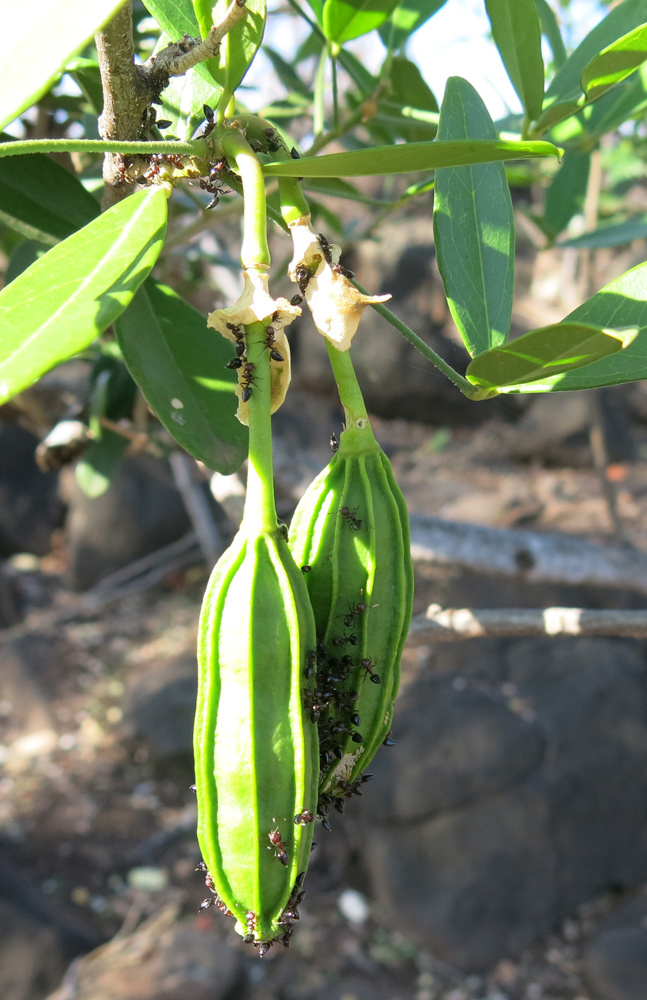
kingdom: Plantae
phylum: Tracheophyta
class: Magnoliopsida
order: Brassicales
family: Capparaceae
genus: Thilachium
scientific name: Thilachium africanum
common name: Cucumber bush
